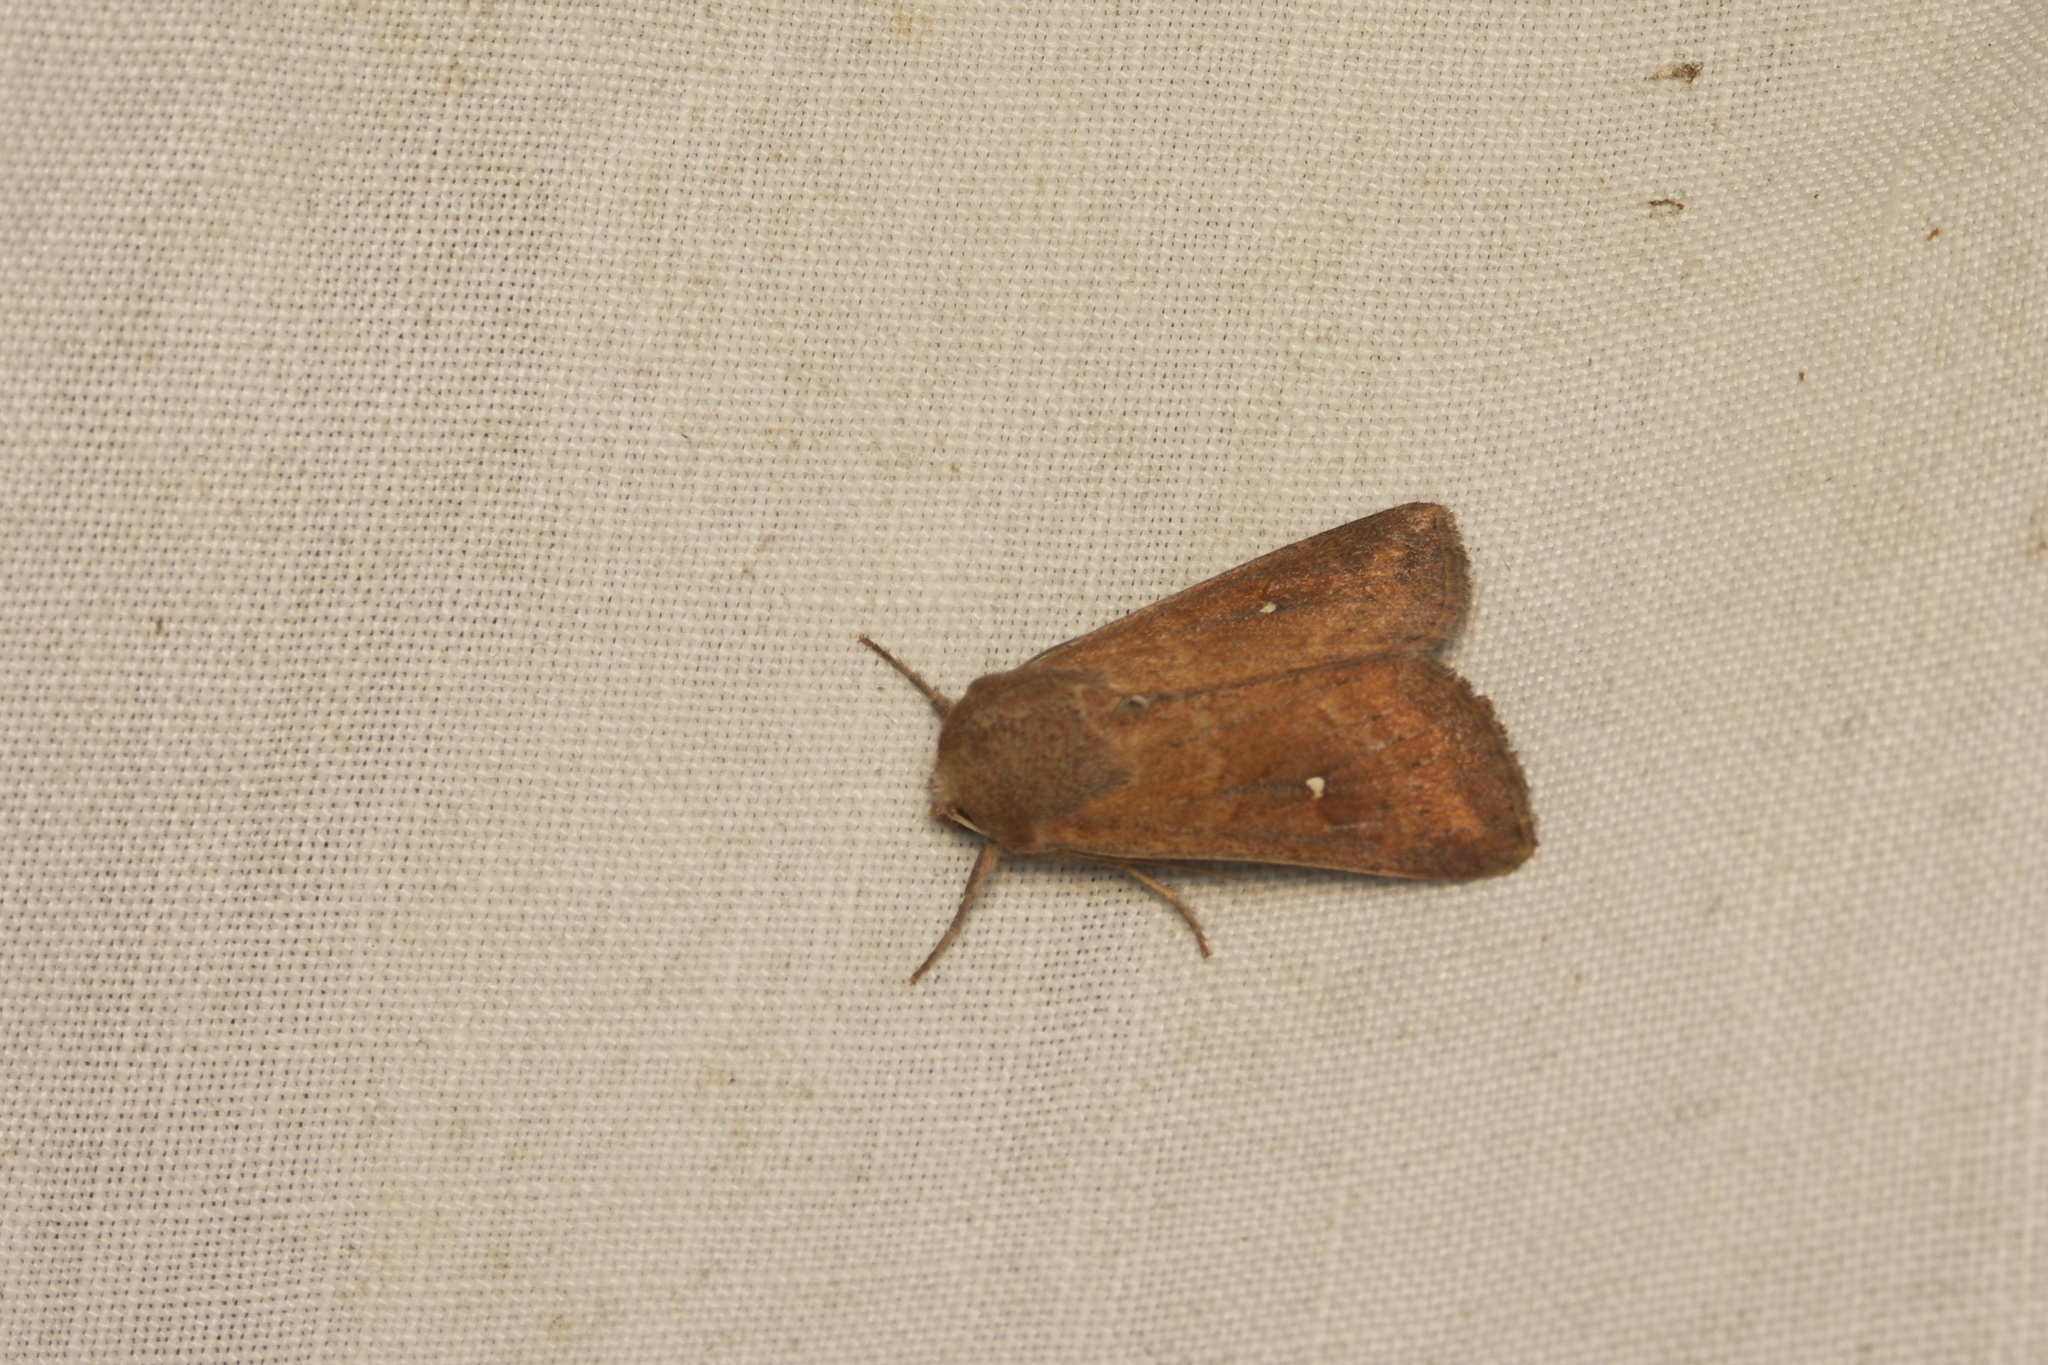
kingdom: Animalia
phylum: Arthropoda
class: Insecta
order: Lepidoptera
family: Noctuidae
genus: Mythimna
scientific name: Mythimna albipuncta
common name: White-point
